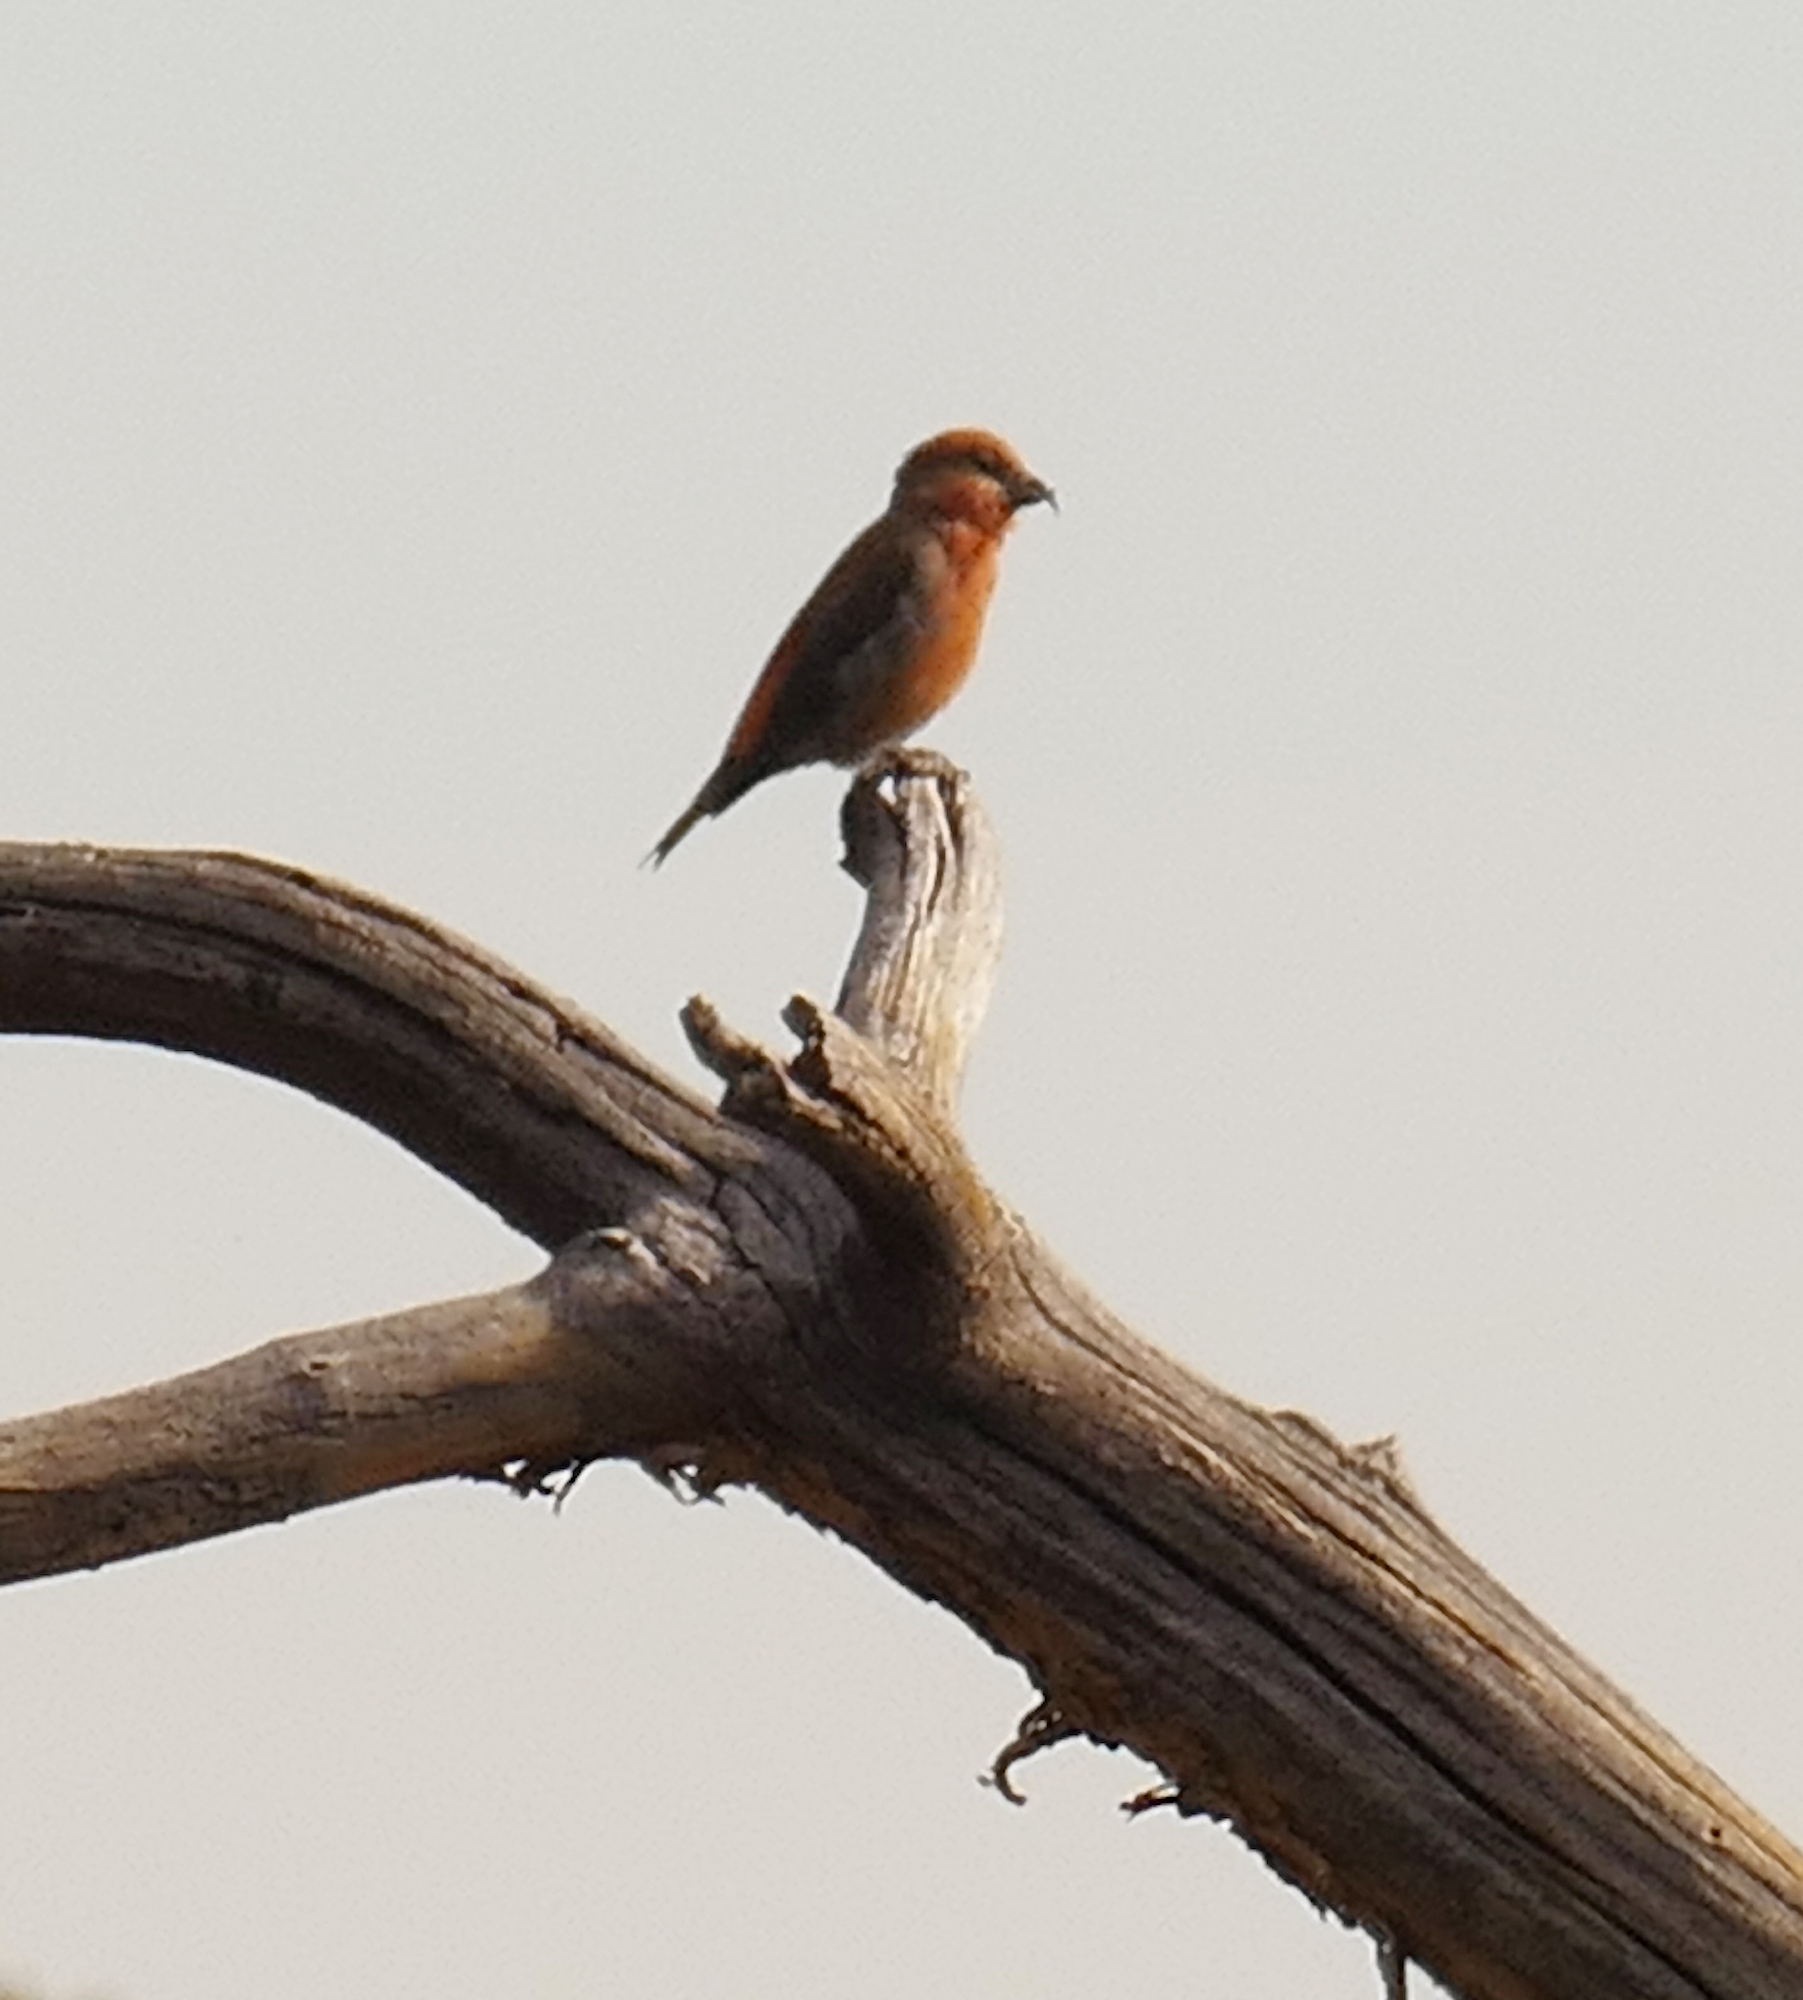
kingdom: Animalia
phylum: Chordata
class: Aves
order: Passeriformes
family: Fringillidae
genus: Loxia
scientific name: Loxia curvirostra
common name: Red crossbill
